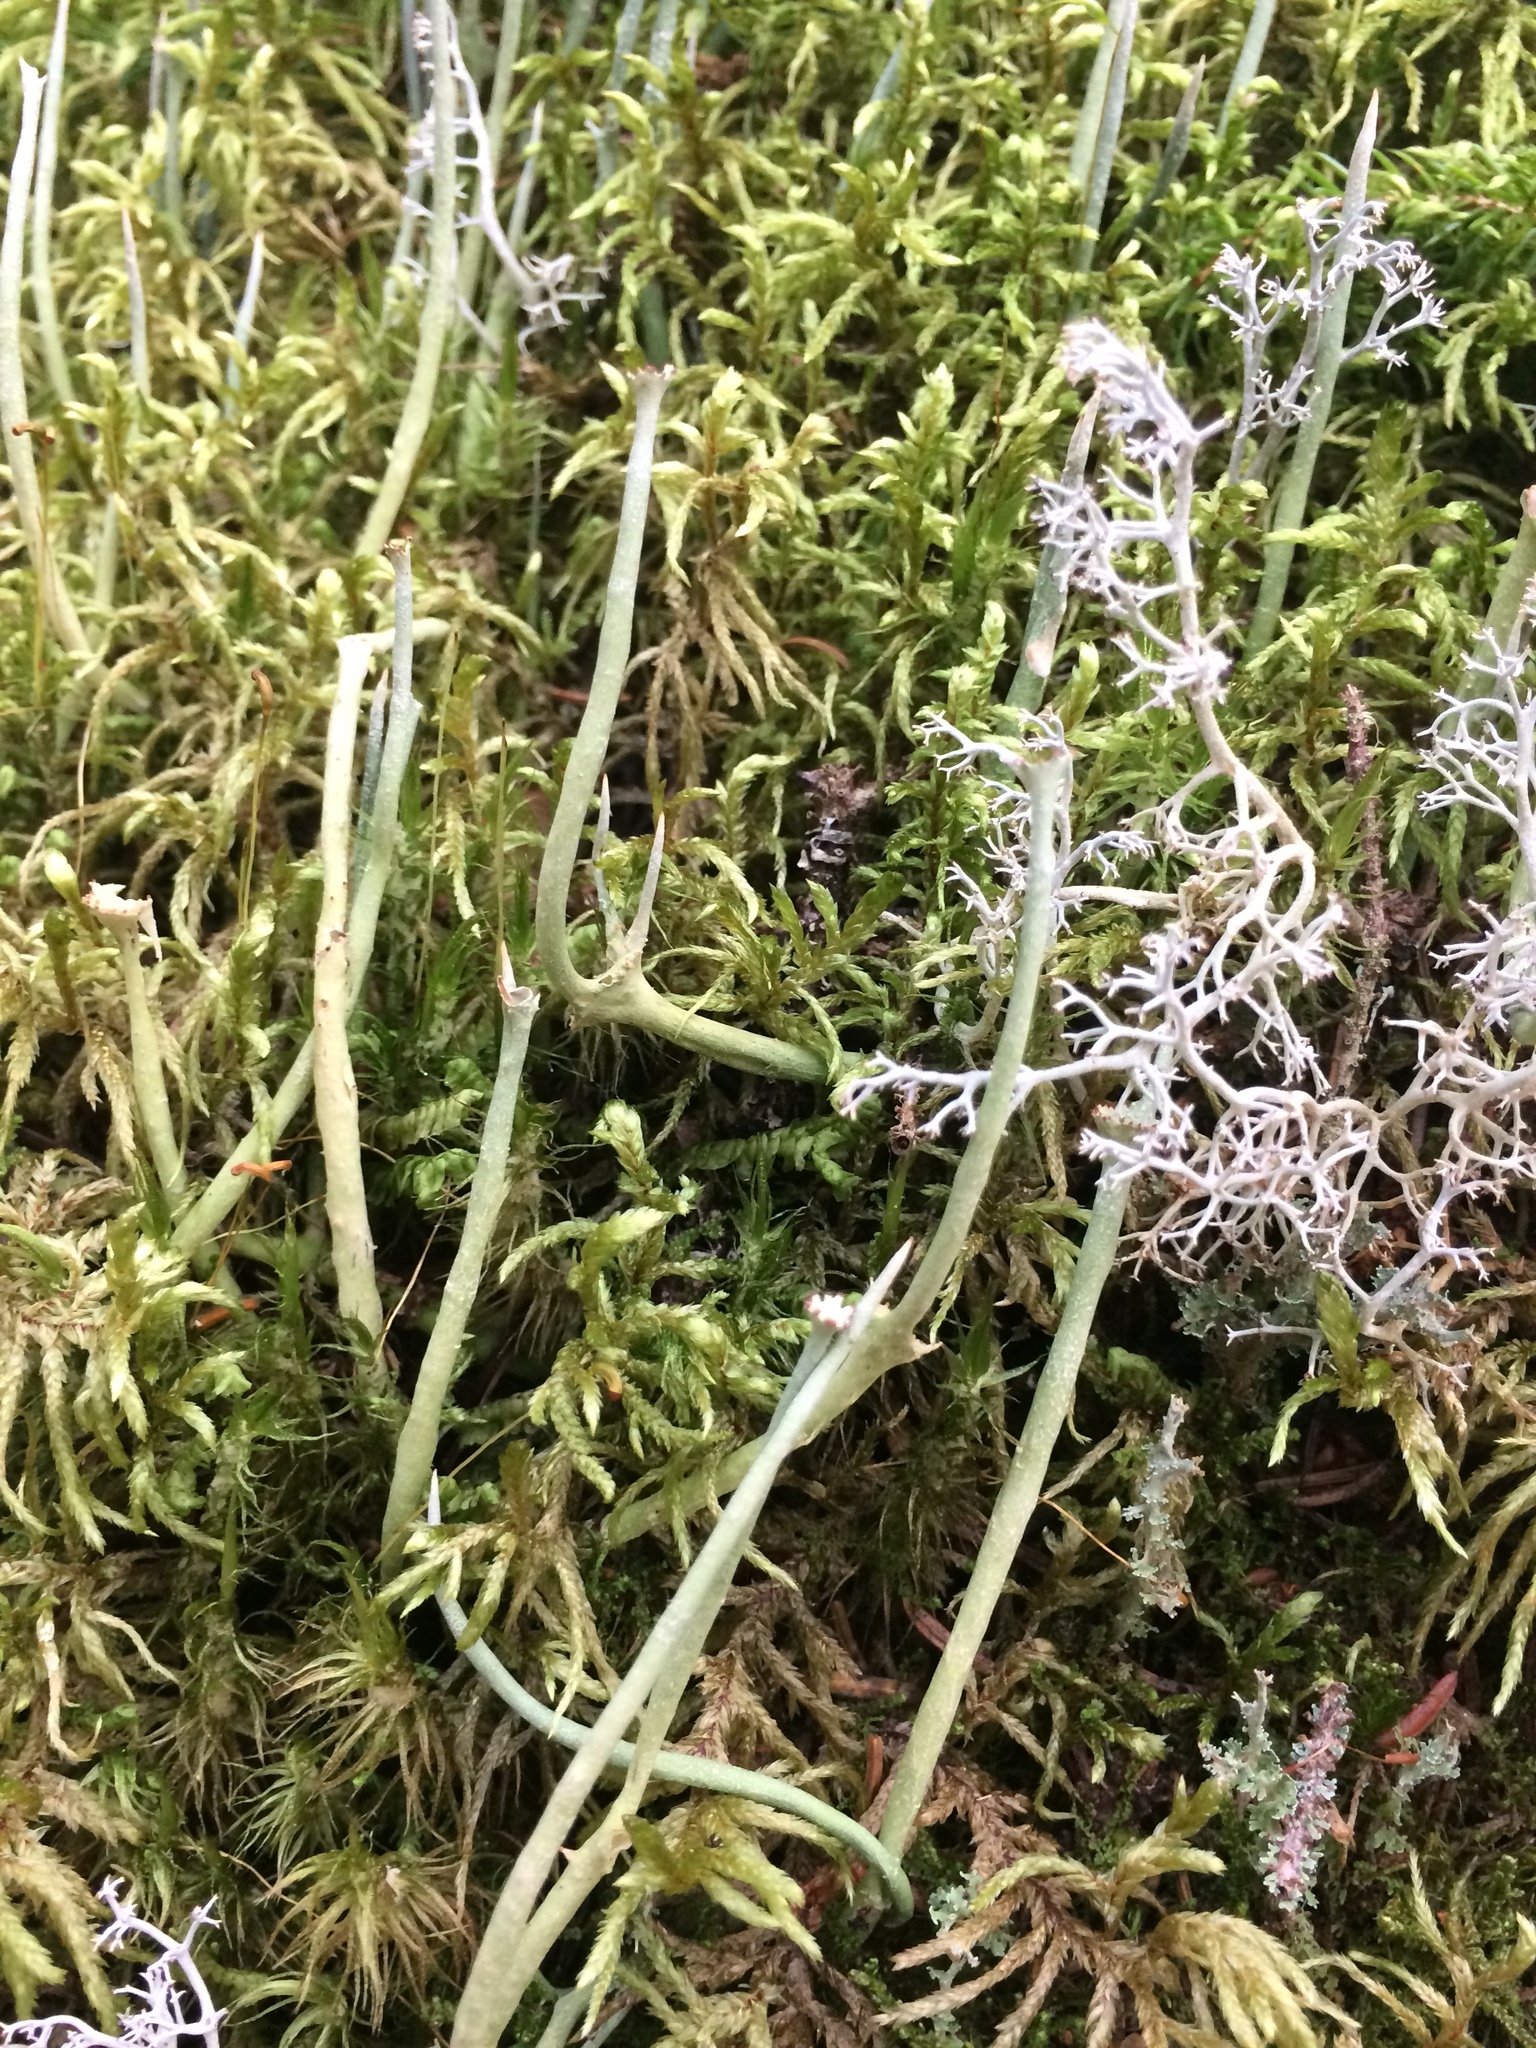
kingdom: Fungi
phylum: Ascomycota
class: Lecanoromycetes
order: Lecanorales
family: Cladoniaceae
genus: Cladonia
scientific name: Cladonia maxima
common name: Giant cladonia lichen
